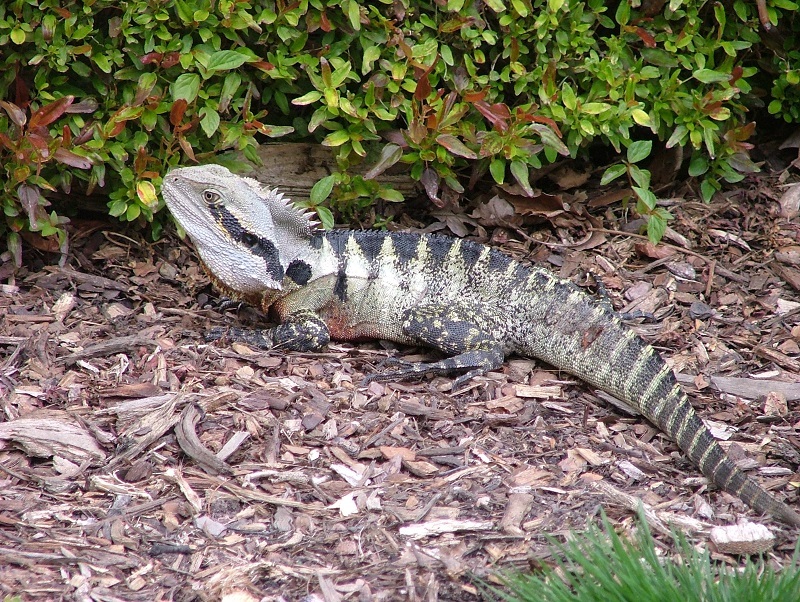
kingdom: Animalia
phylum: Chordata
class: Squamata
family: Agamidae
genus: Intellagama
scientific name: Intellagama lesueurii
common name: Eastern water dragon
